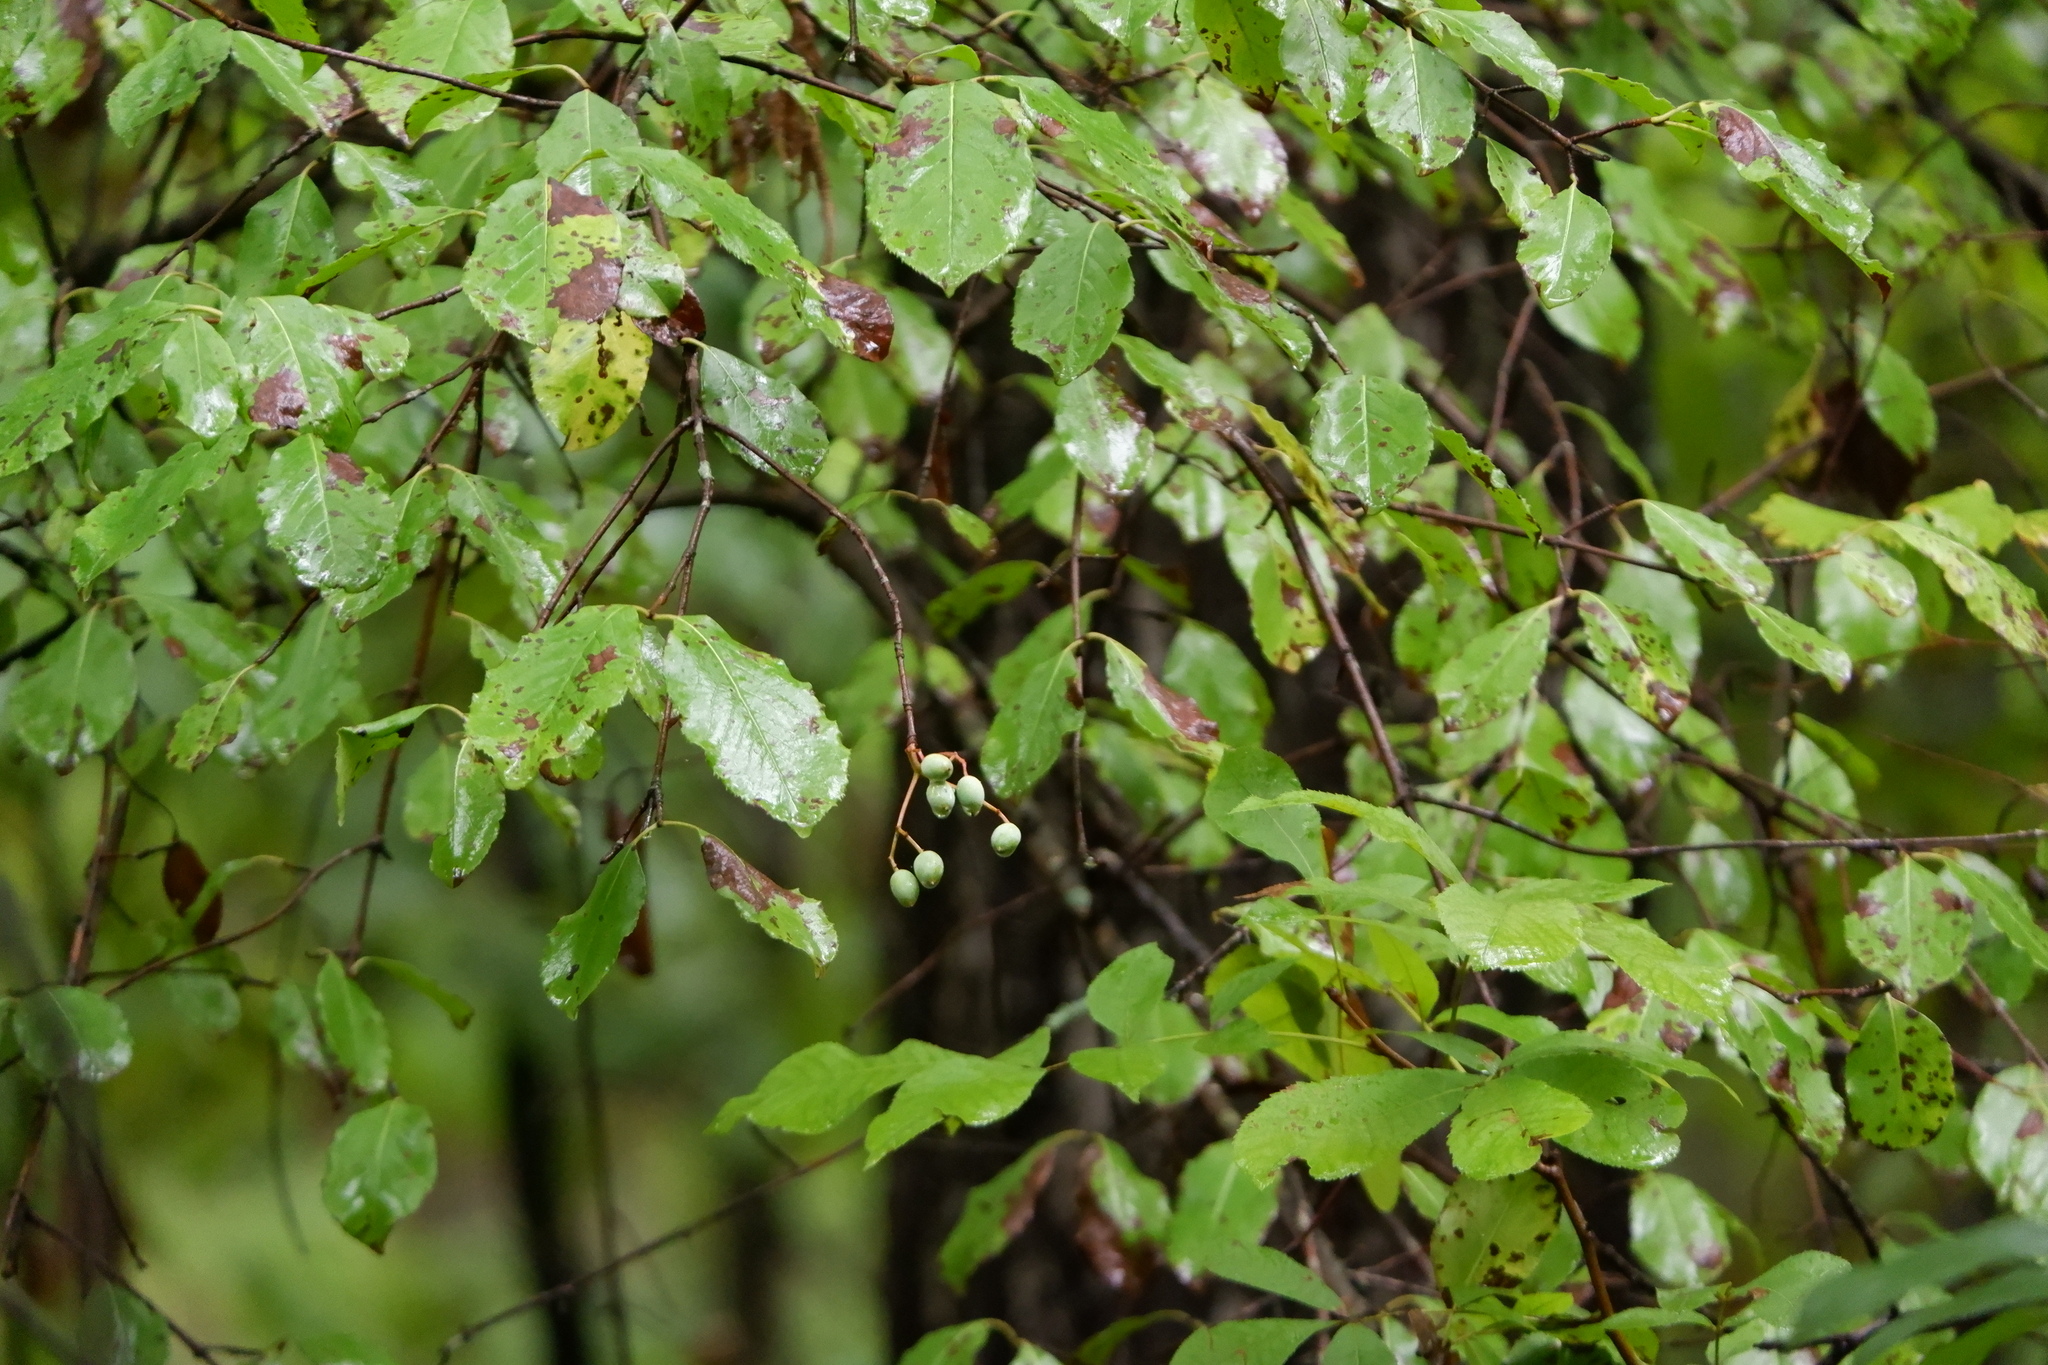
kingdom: Plantae
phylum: Tracheophyta
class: Magnoliopsida
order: Dipsacales
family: Viburnaceae
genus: Viburnum
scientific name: Viburnum rufidulum
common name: Blue haw
